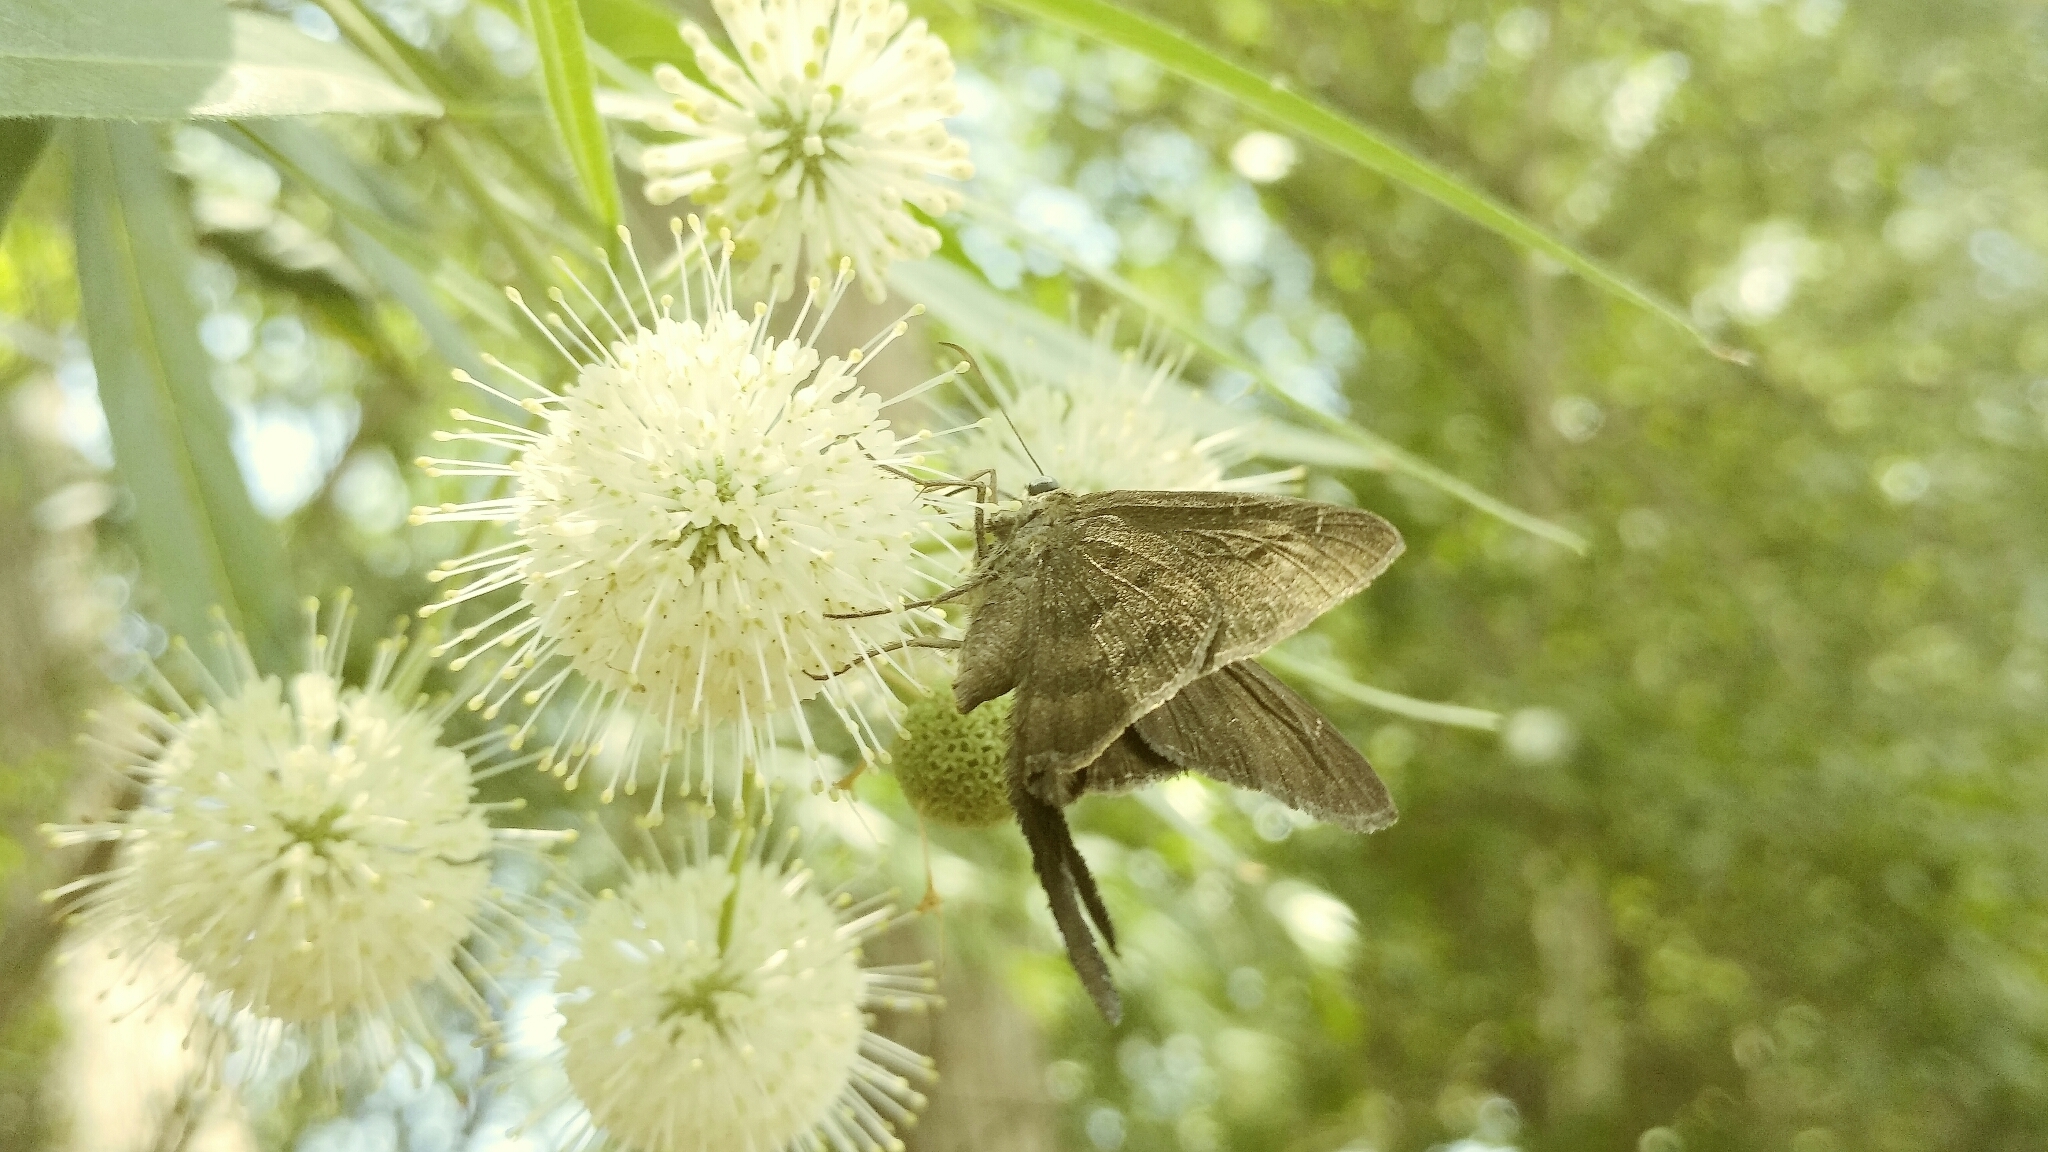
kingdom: Animalia
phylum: Arthropoda
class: Insecta
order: Lepidoptera
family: Hesperiidae
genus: Urbanus
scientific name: Urbanus procne
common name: Brown longtail
